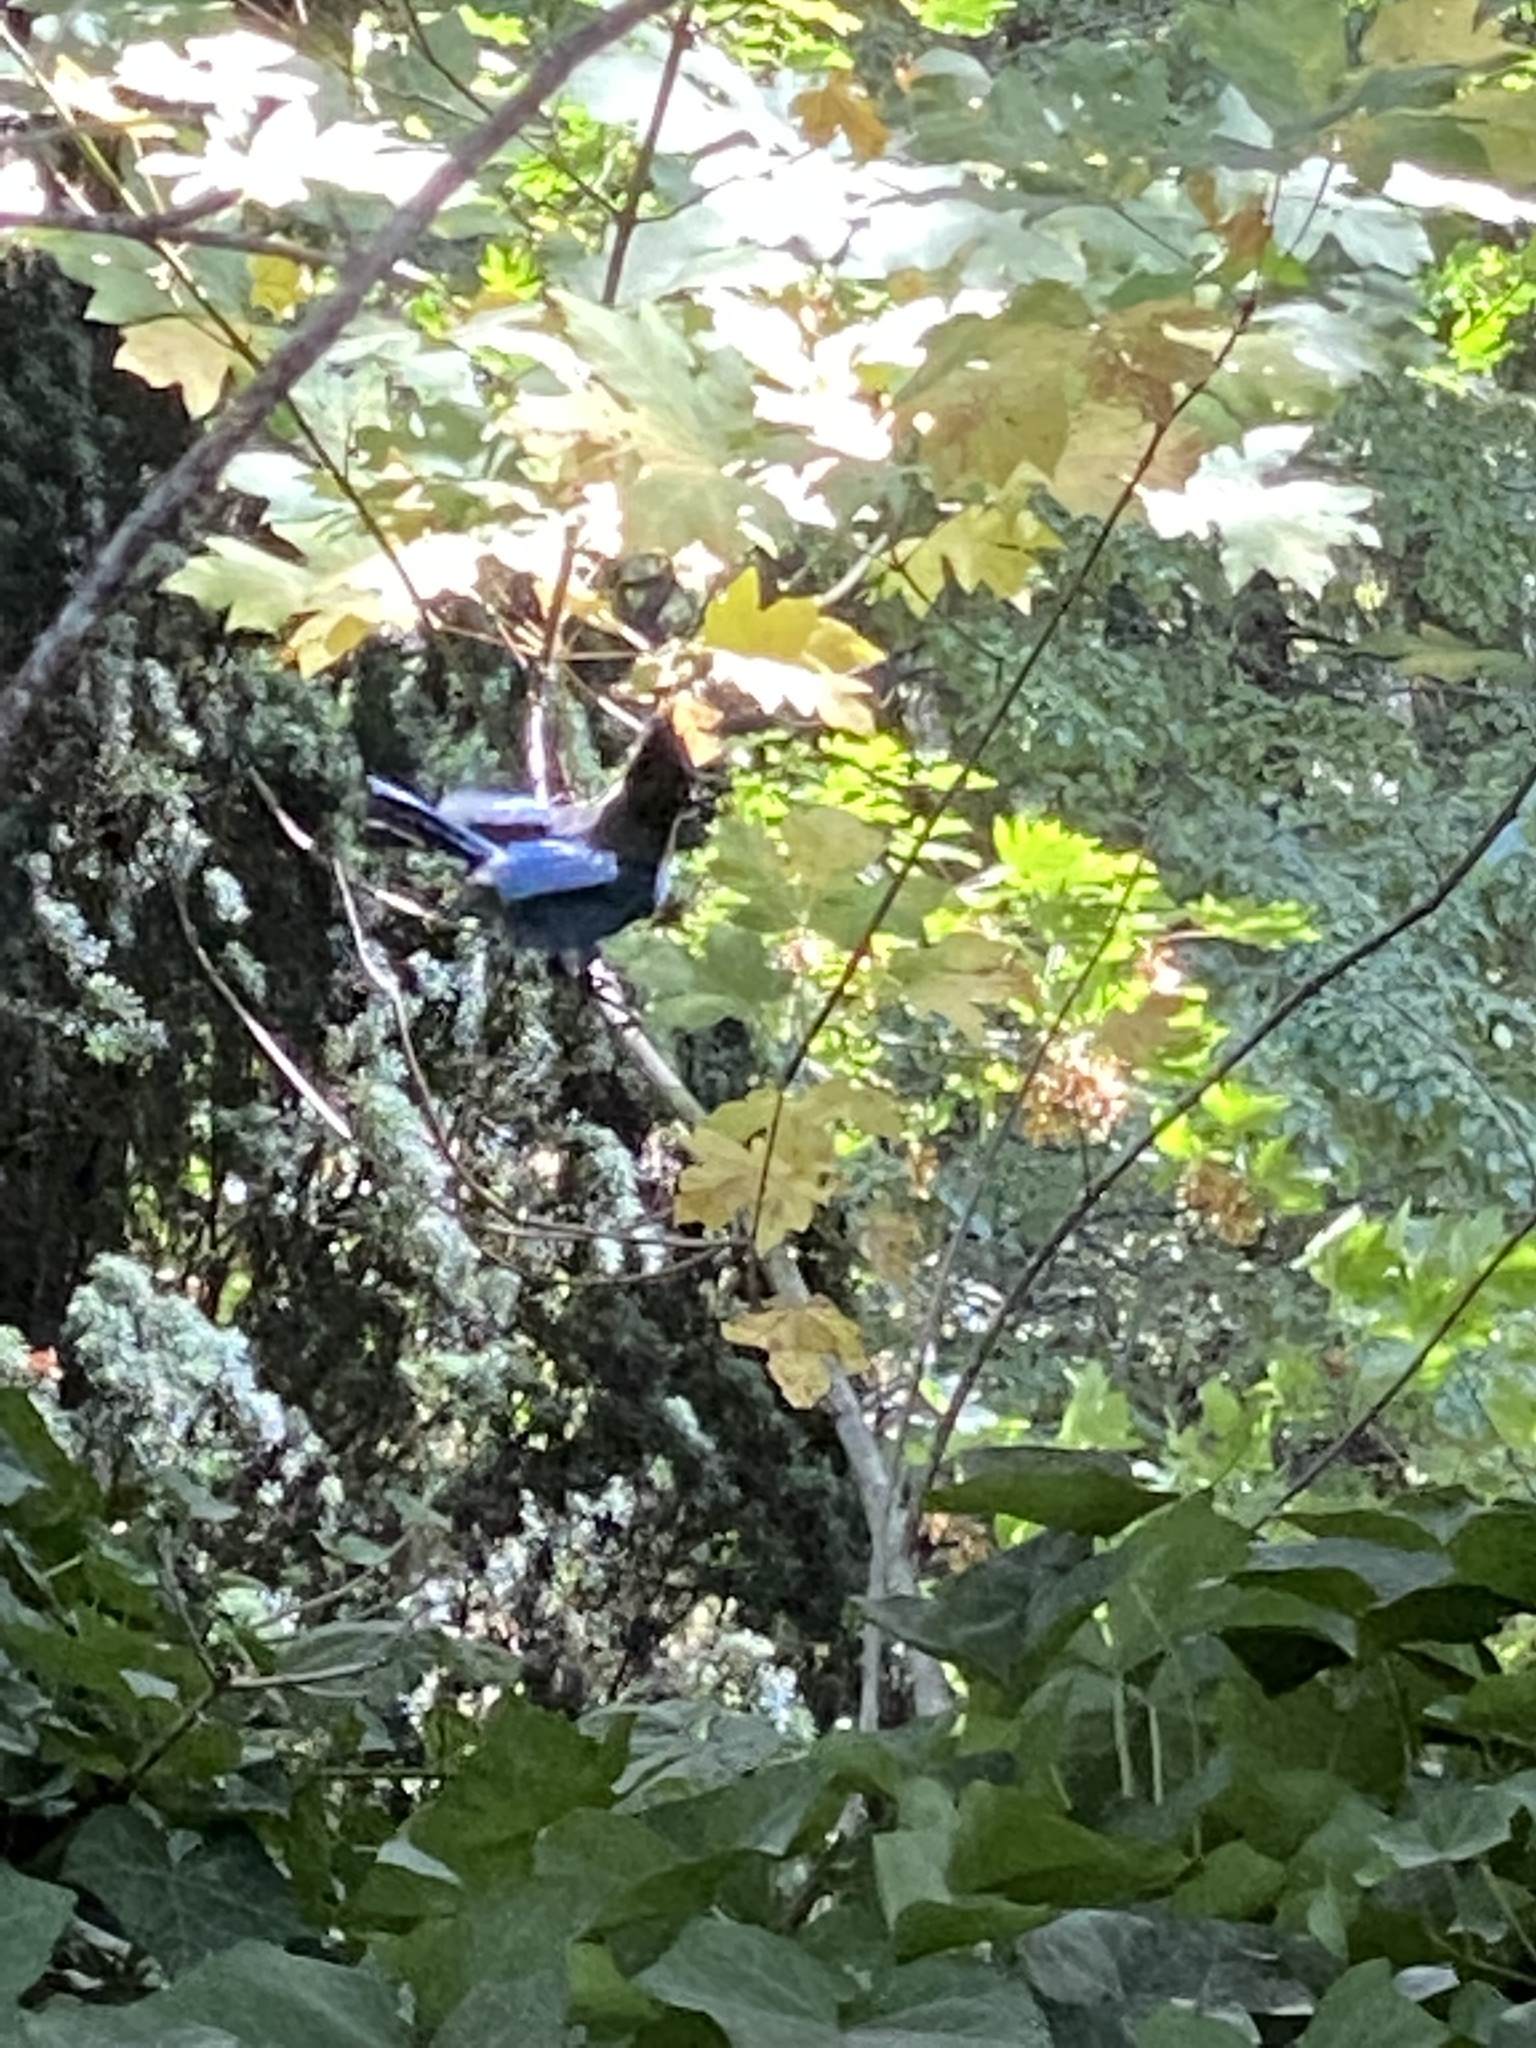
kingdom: Animalia
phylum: Chordata
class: Aves
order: Passeriformes
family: Corvidae
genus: Cyanocitta
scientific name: Cyanocitta stelleri
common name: Steller's jay
